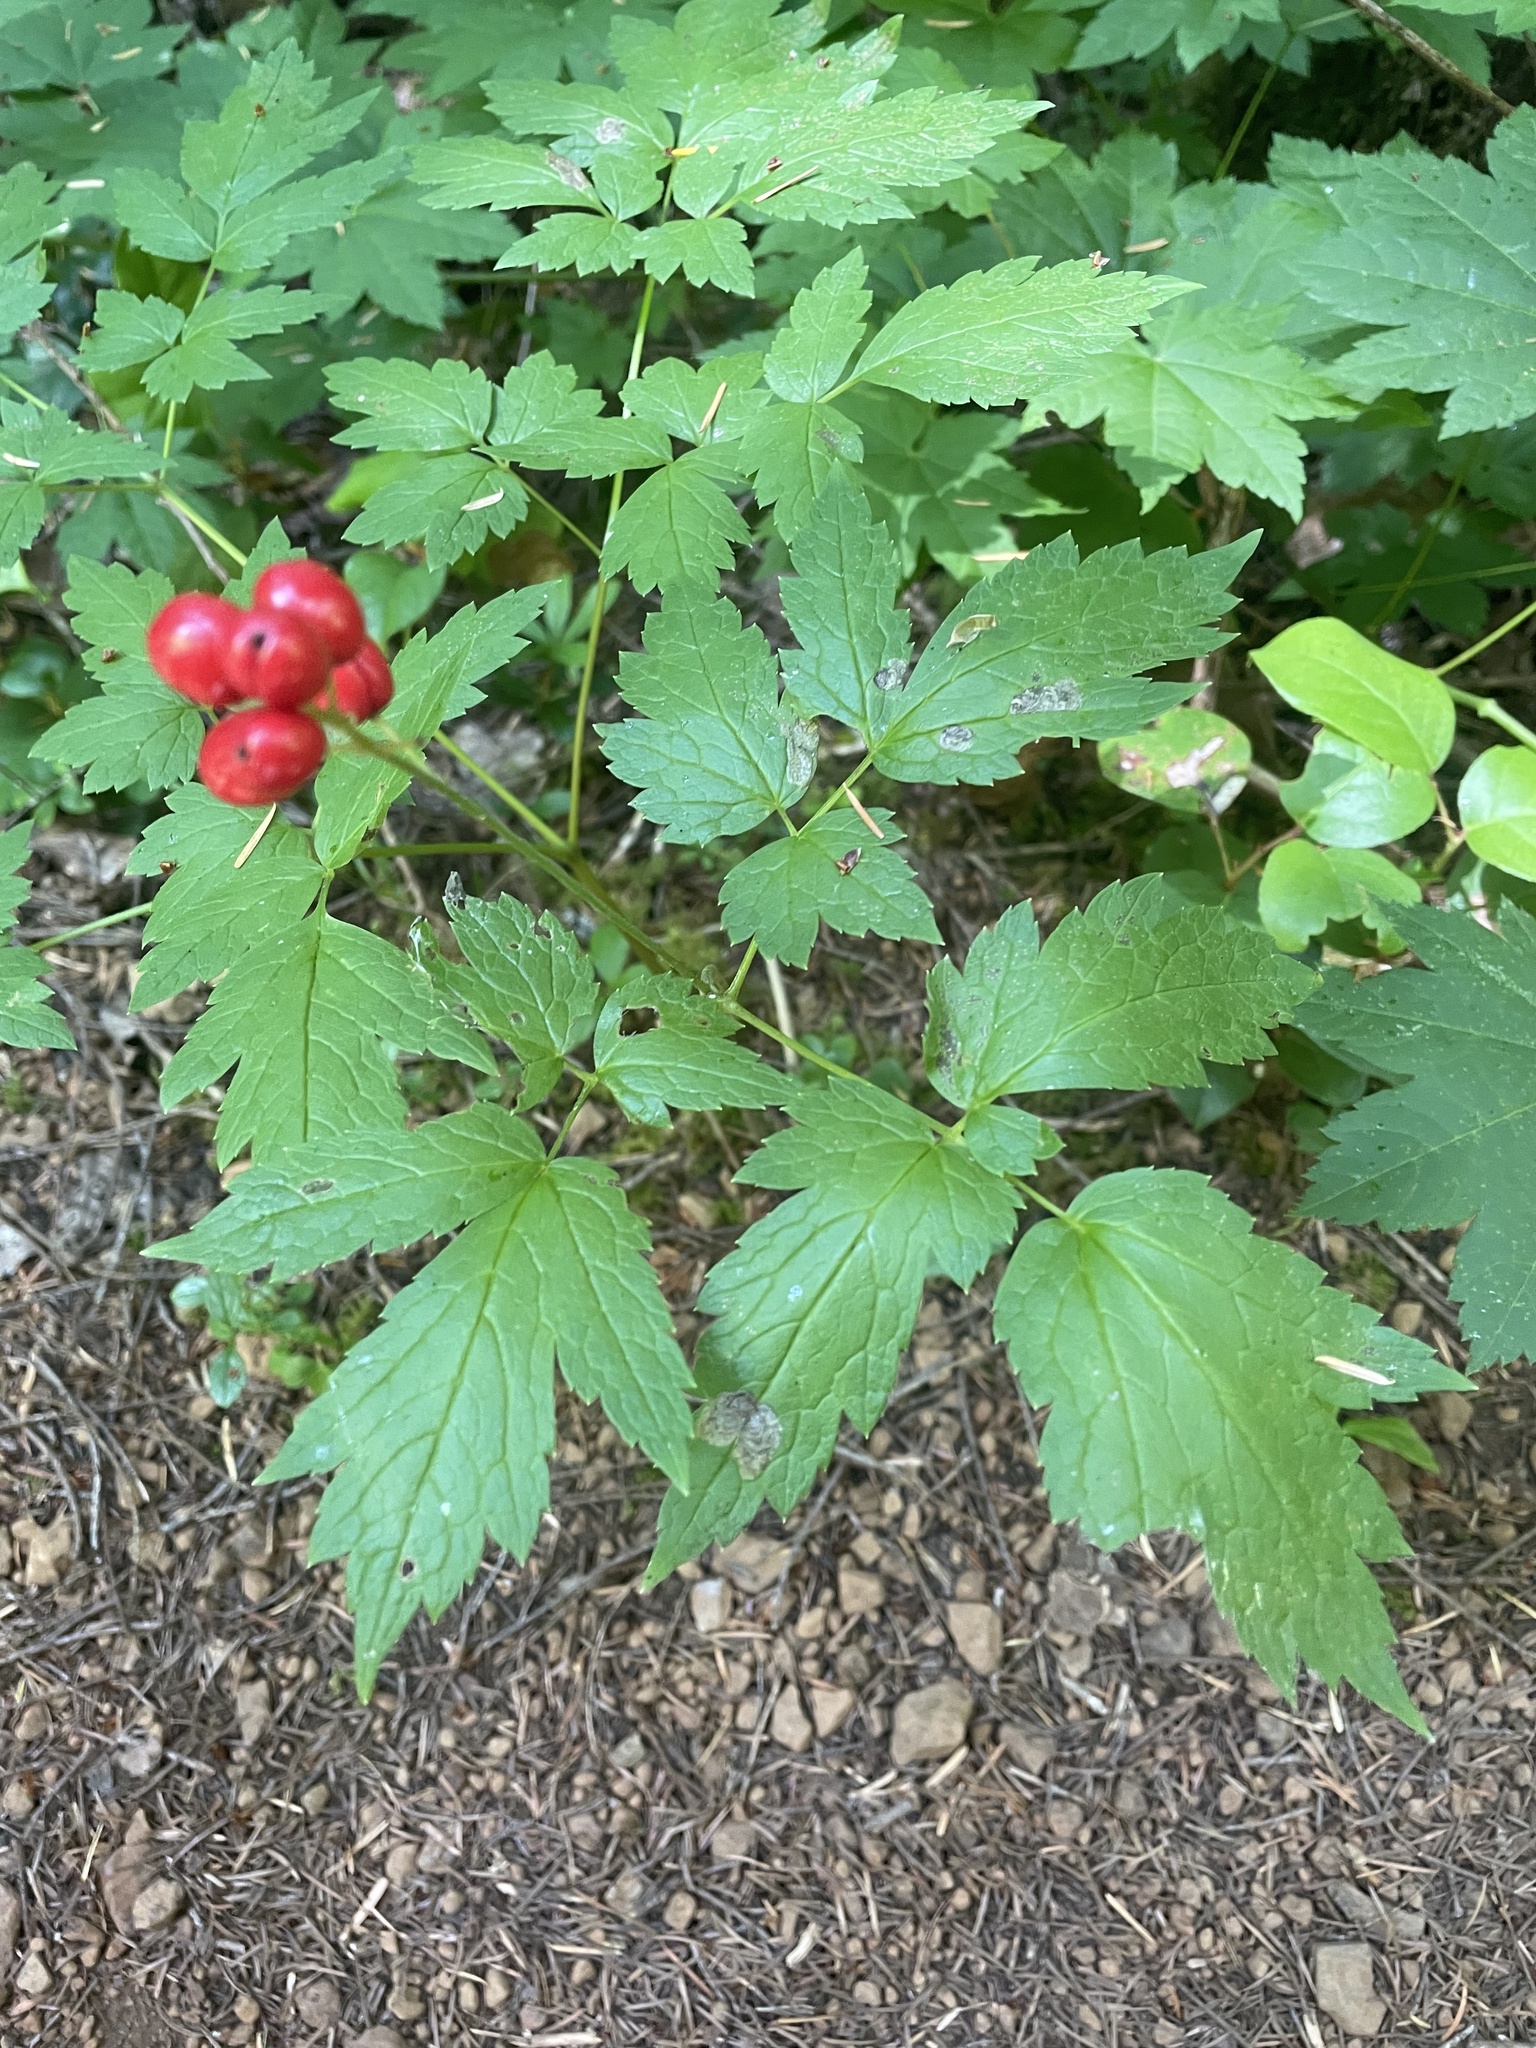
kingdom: Plantae
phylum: Tracheophyta
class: Magnoliopsida
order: Ranunculales
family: Ranunculaceae
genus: Actaea
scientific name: Actaea rubra
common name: Red baneberry
